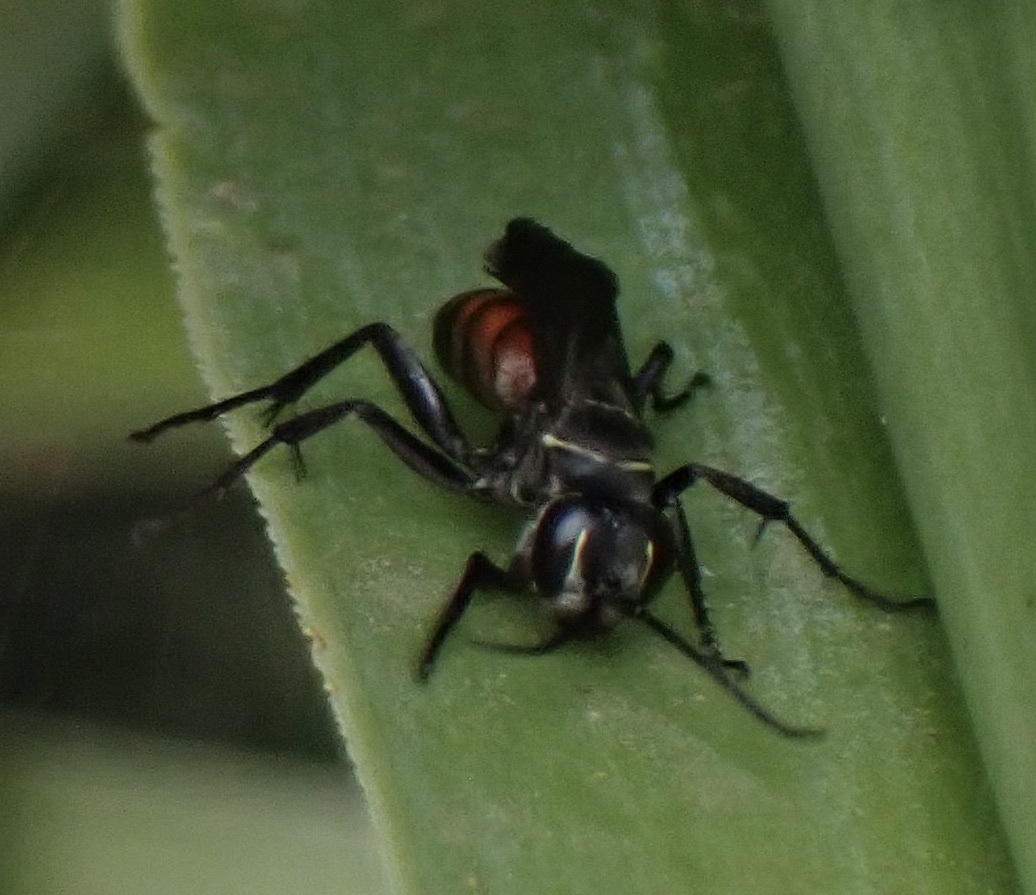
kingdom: Animalia
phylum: Arthropoda
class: Insecta
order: Hymenoptera
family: Pompilidae
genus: Anospilus
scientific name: Anospilus orbitalis
